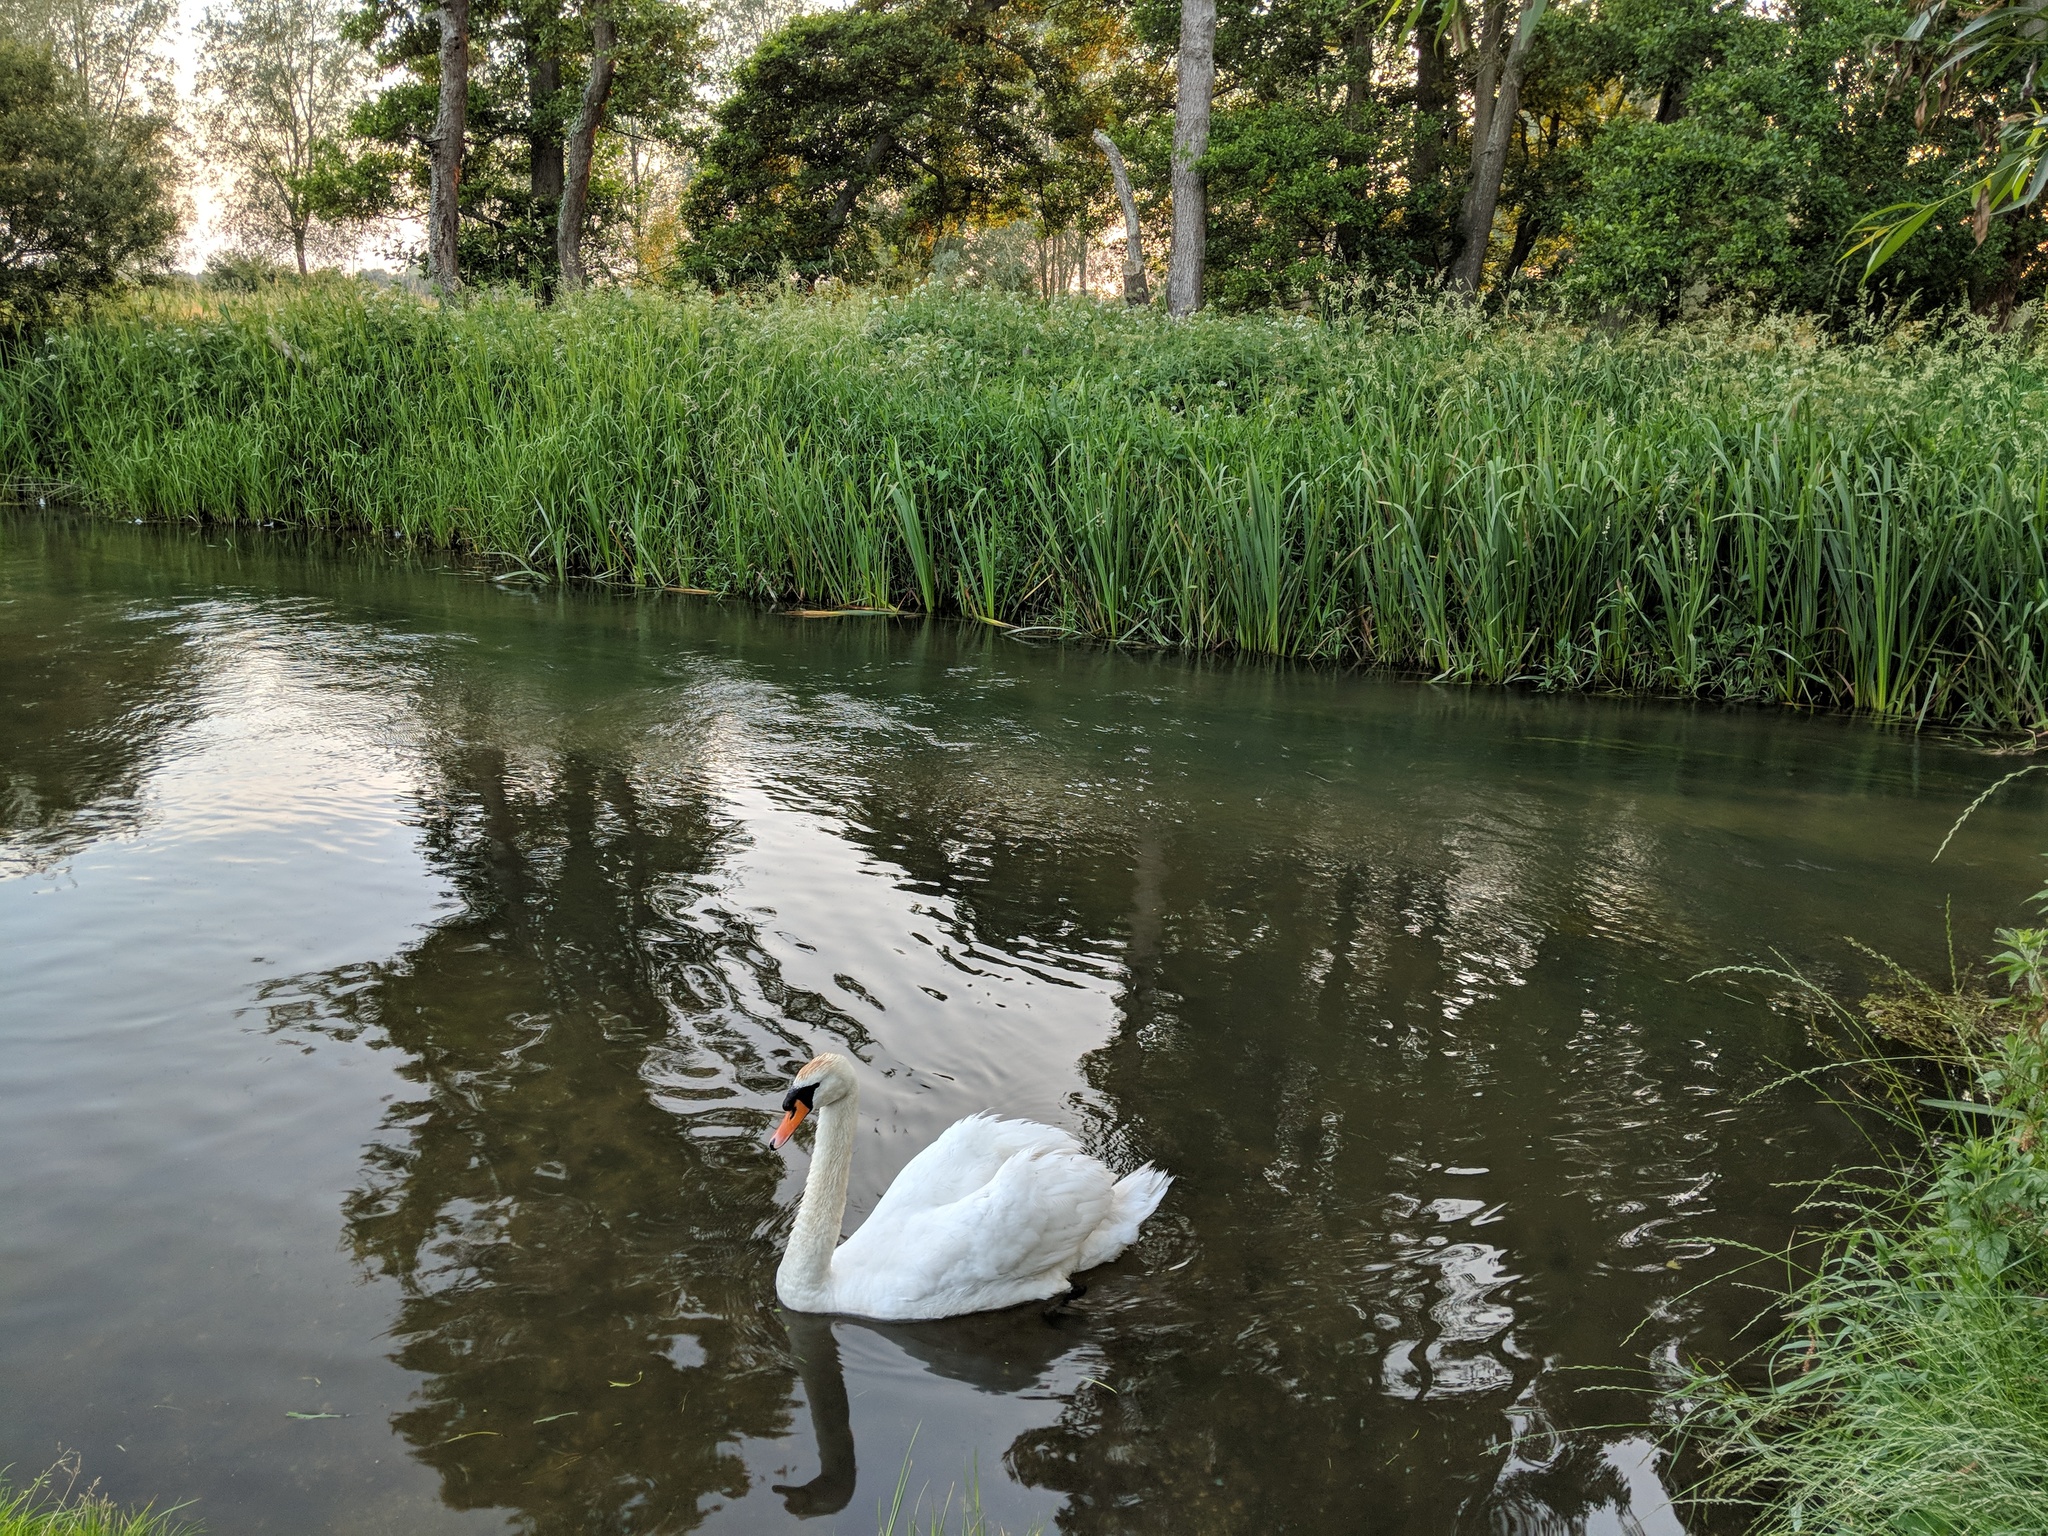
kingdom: Animalia
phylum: Chordata
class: Aves
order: Anseriformes
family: Anatidae
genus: Cygnus
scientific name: Cygnus olor
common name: Mute swan
